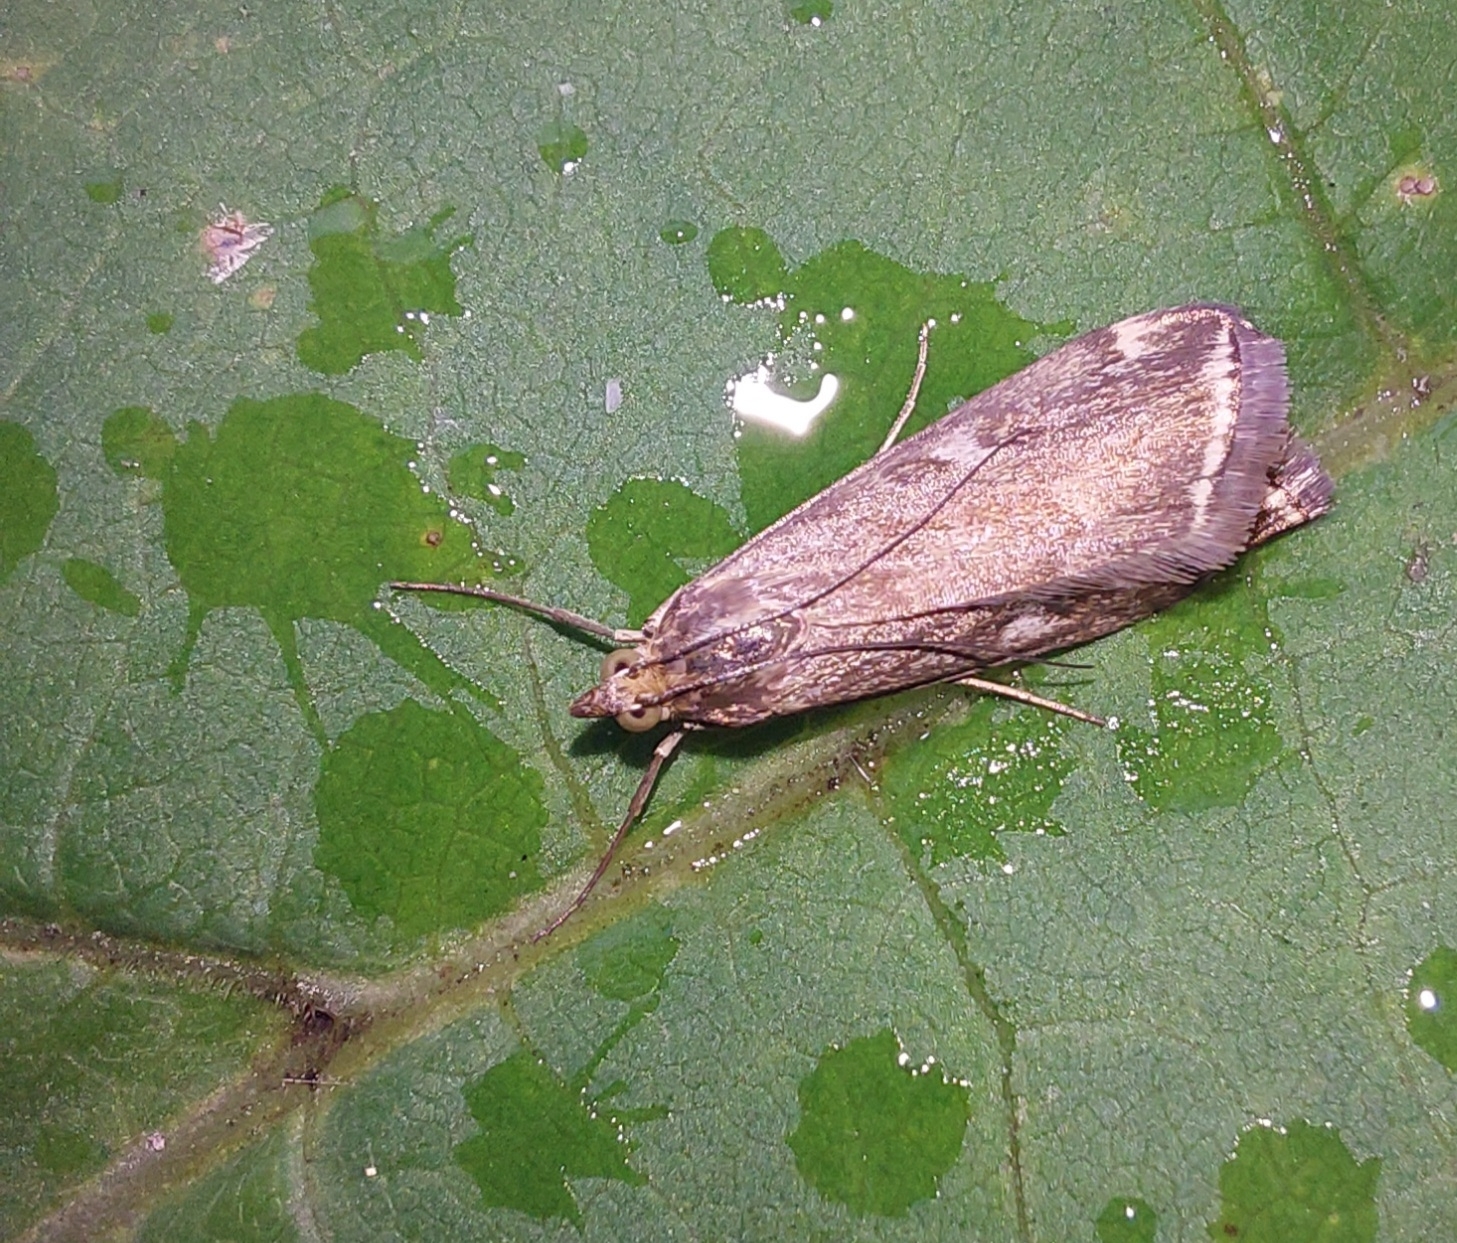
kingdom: Animalia
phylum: Arthropoda
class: Insecta
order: Lepidoptera
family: Crambidae
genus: Loxostege
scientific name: Loxostege sticticalis
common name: Crambid moth
